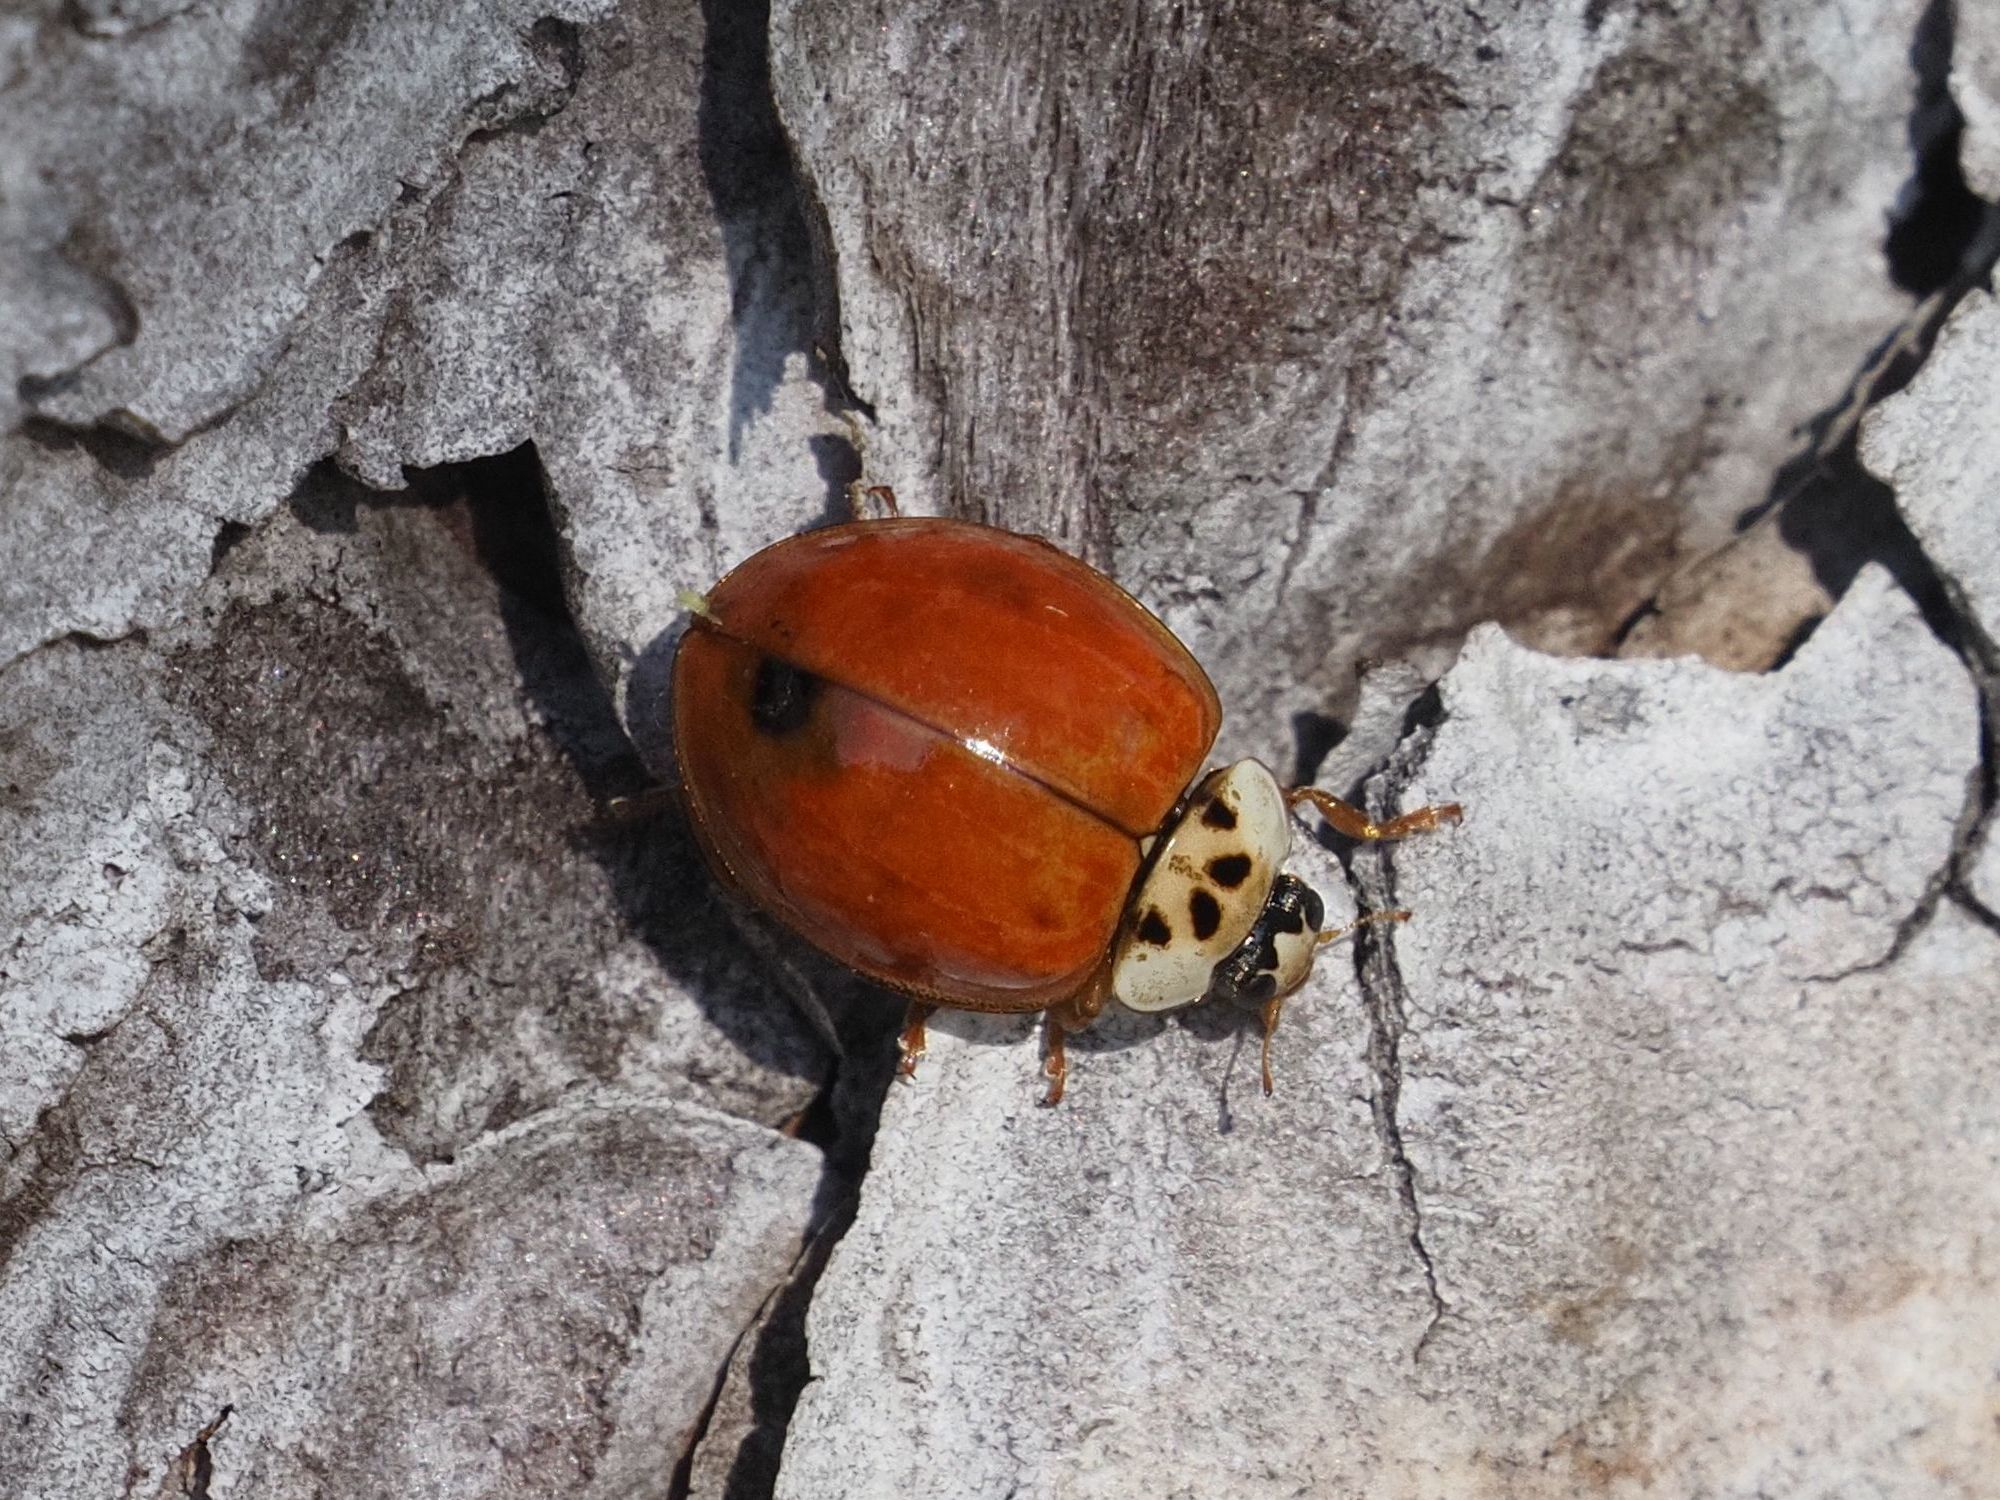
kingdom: Animalia
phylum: Arthropoda
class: Insecta
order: Coleoptera
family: Coccinellidae
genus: Harmonia
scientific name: Harmonia axyridis
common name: Harlequin ladybird
